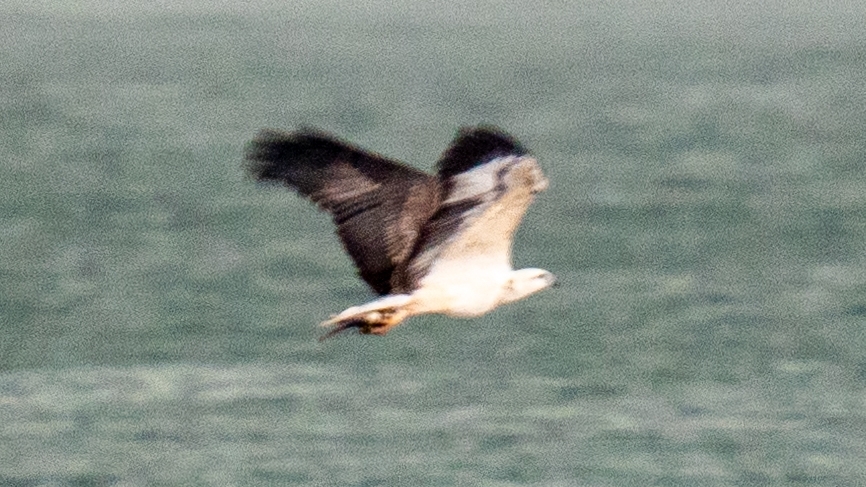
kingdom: Animalia
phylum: Chordata
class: Aves
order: Accipitriformes
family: Accipitridae
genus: Haliaeetus
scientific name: Haliaeetus leucogaster
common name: White-bellied sea eagle
